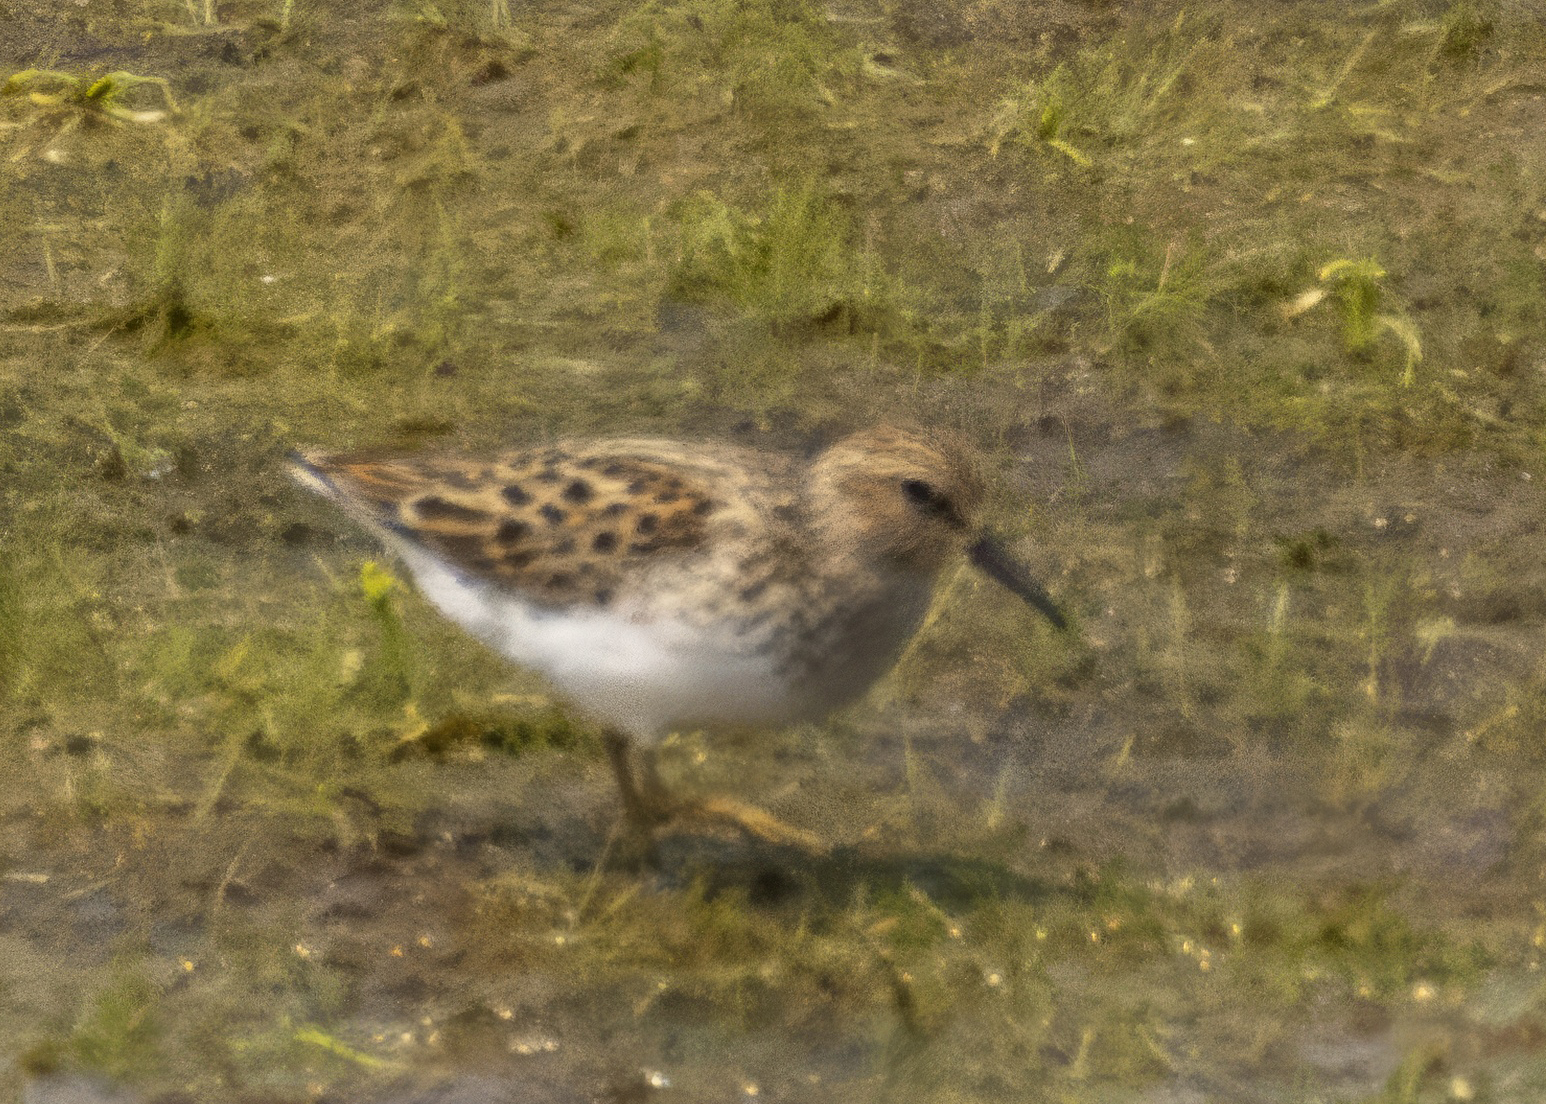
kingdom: Animalia
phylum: Chordata
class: Aves
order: Charadriiformes
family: Scolopacidae
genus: Calidris
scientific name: Calidris minutilla
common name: Least sandpiper
